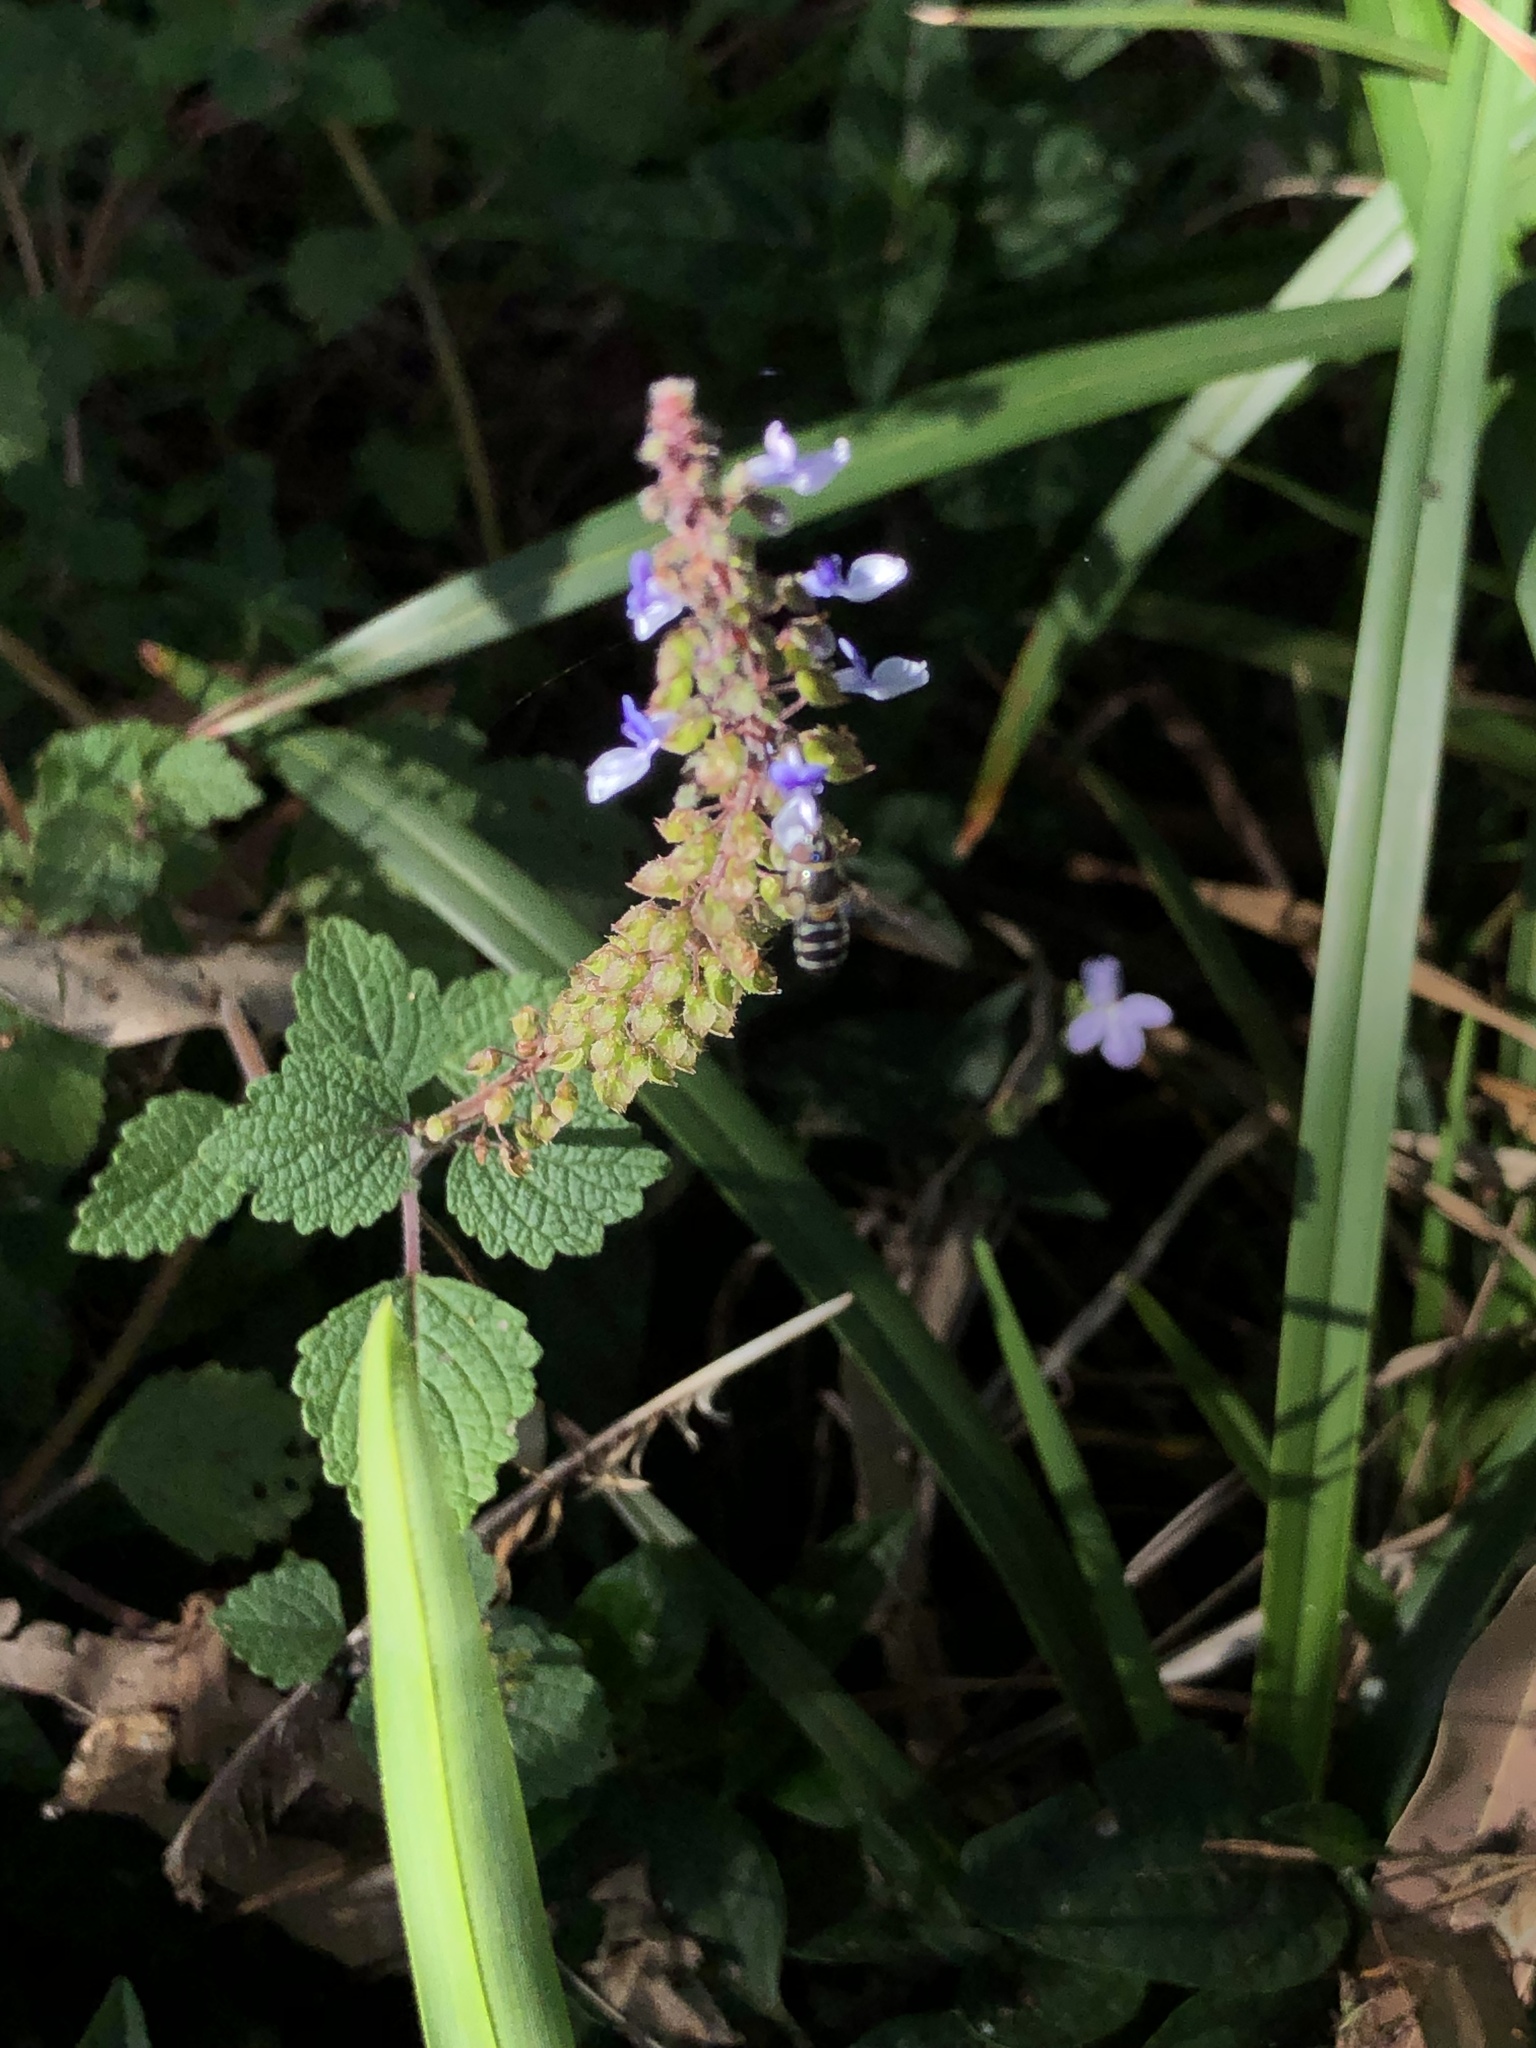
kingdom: Plantae
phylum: Tracheophyta
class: Magnoliopsida
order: Lamiales
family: Lamiaceae
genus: Coleus
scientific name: Coleus australis
